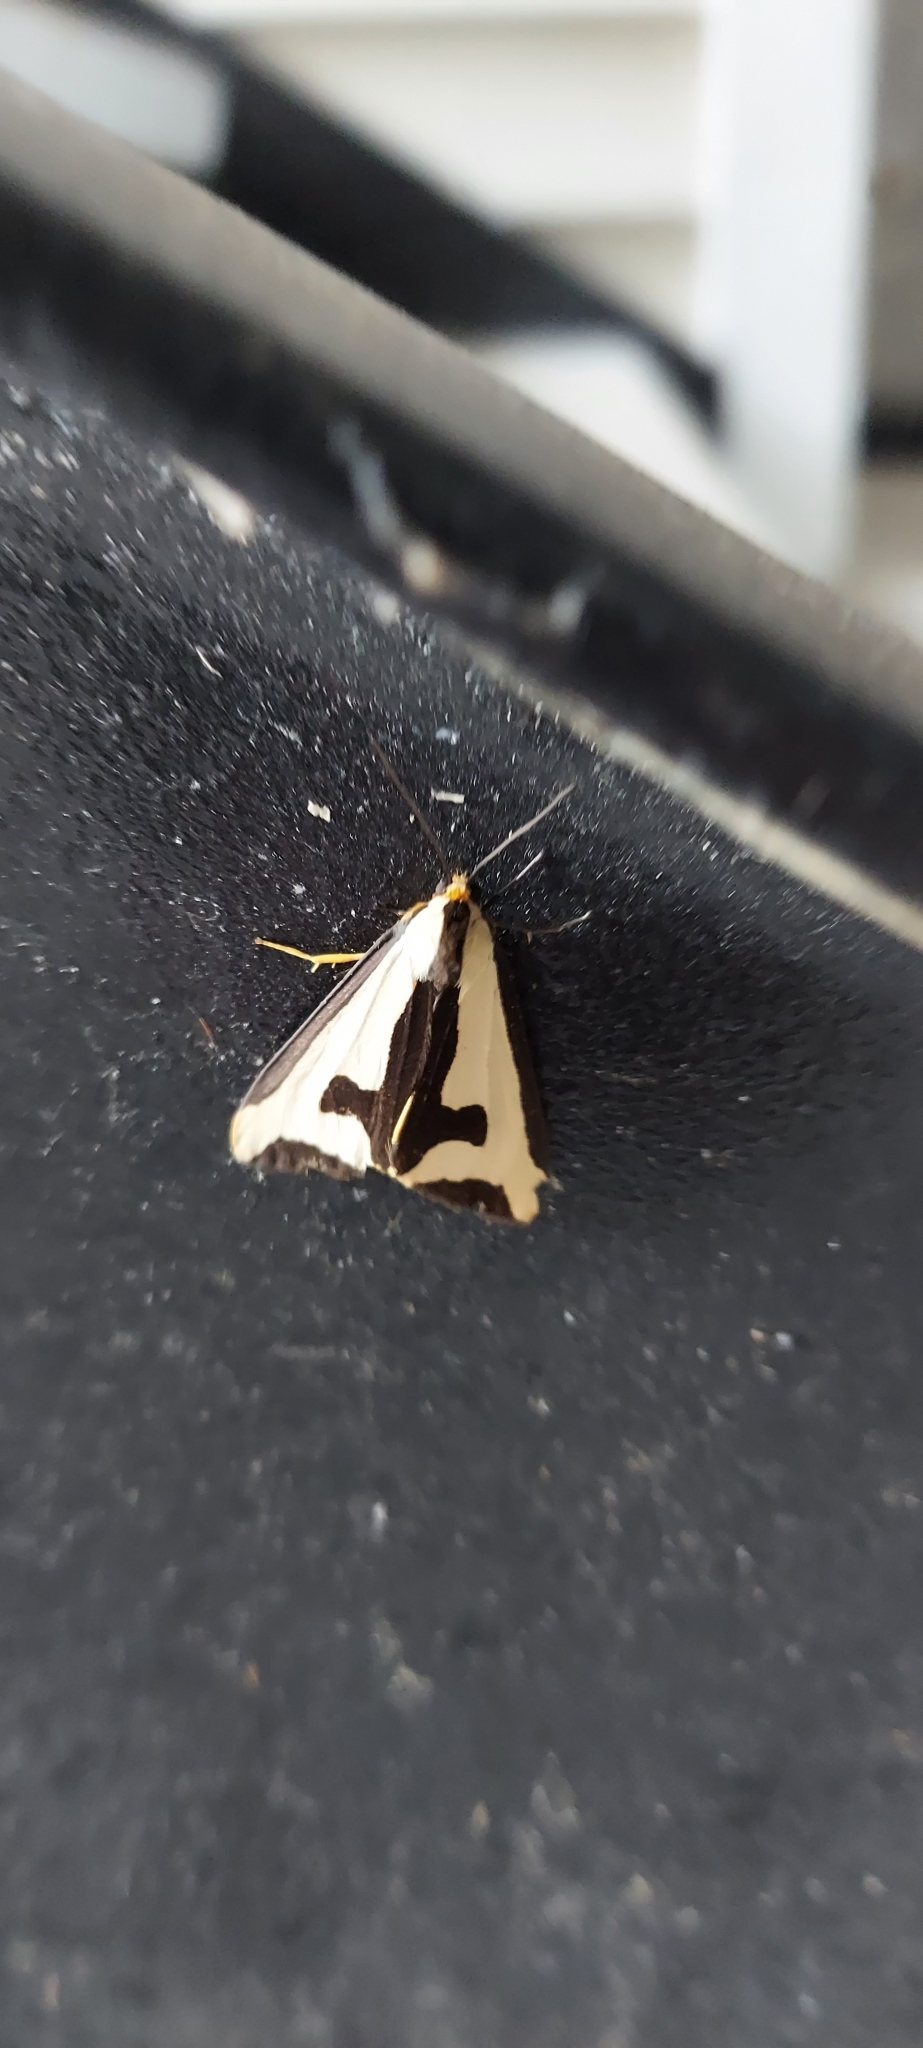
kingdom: Animalia
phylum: Arthropoda
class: Insecta
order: Lepidoptera
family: Erebidae
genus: Haploa
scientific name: Haploa clymene
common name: Clymene moth
